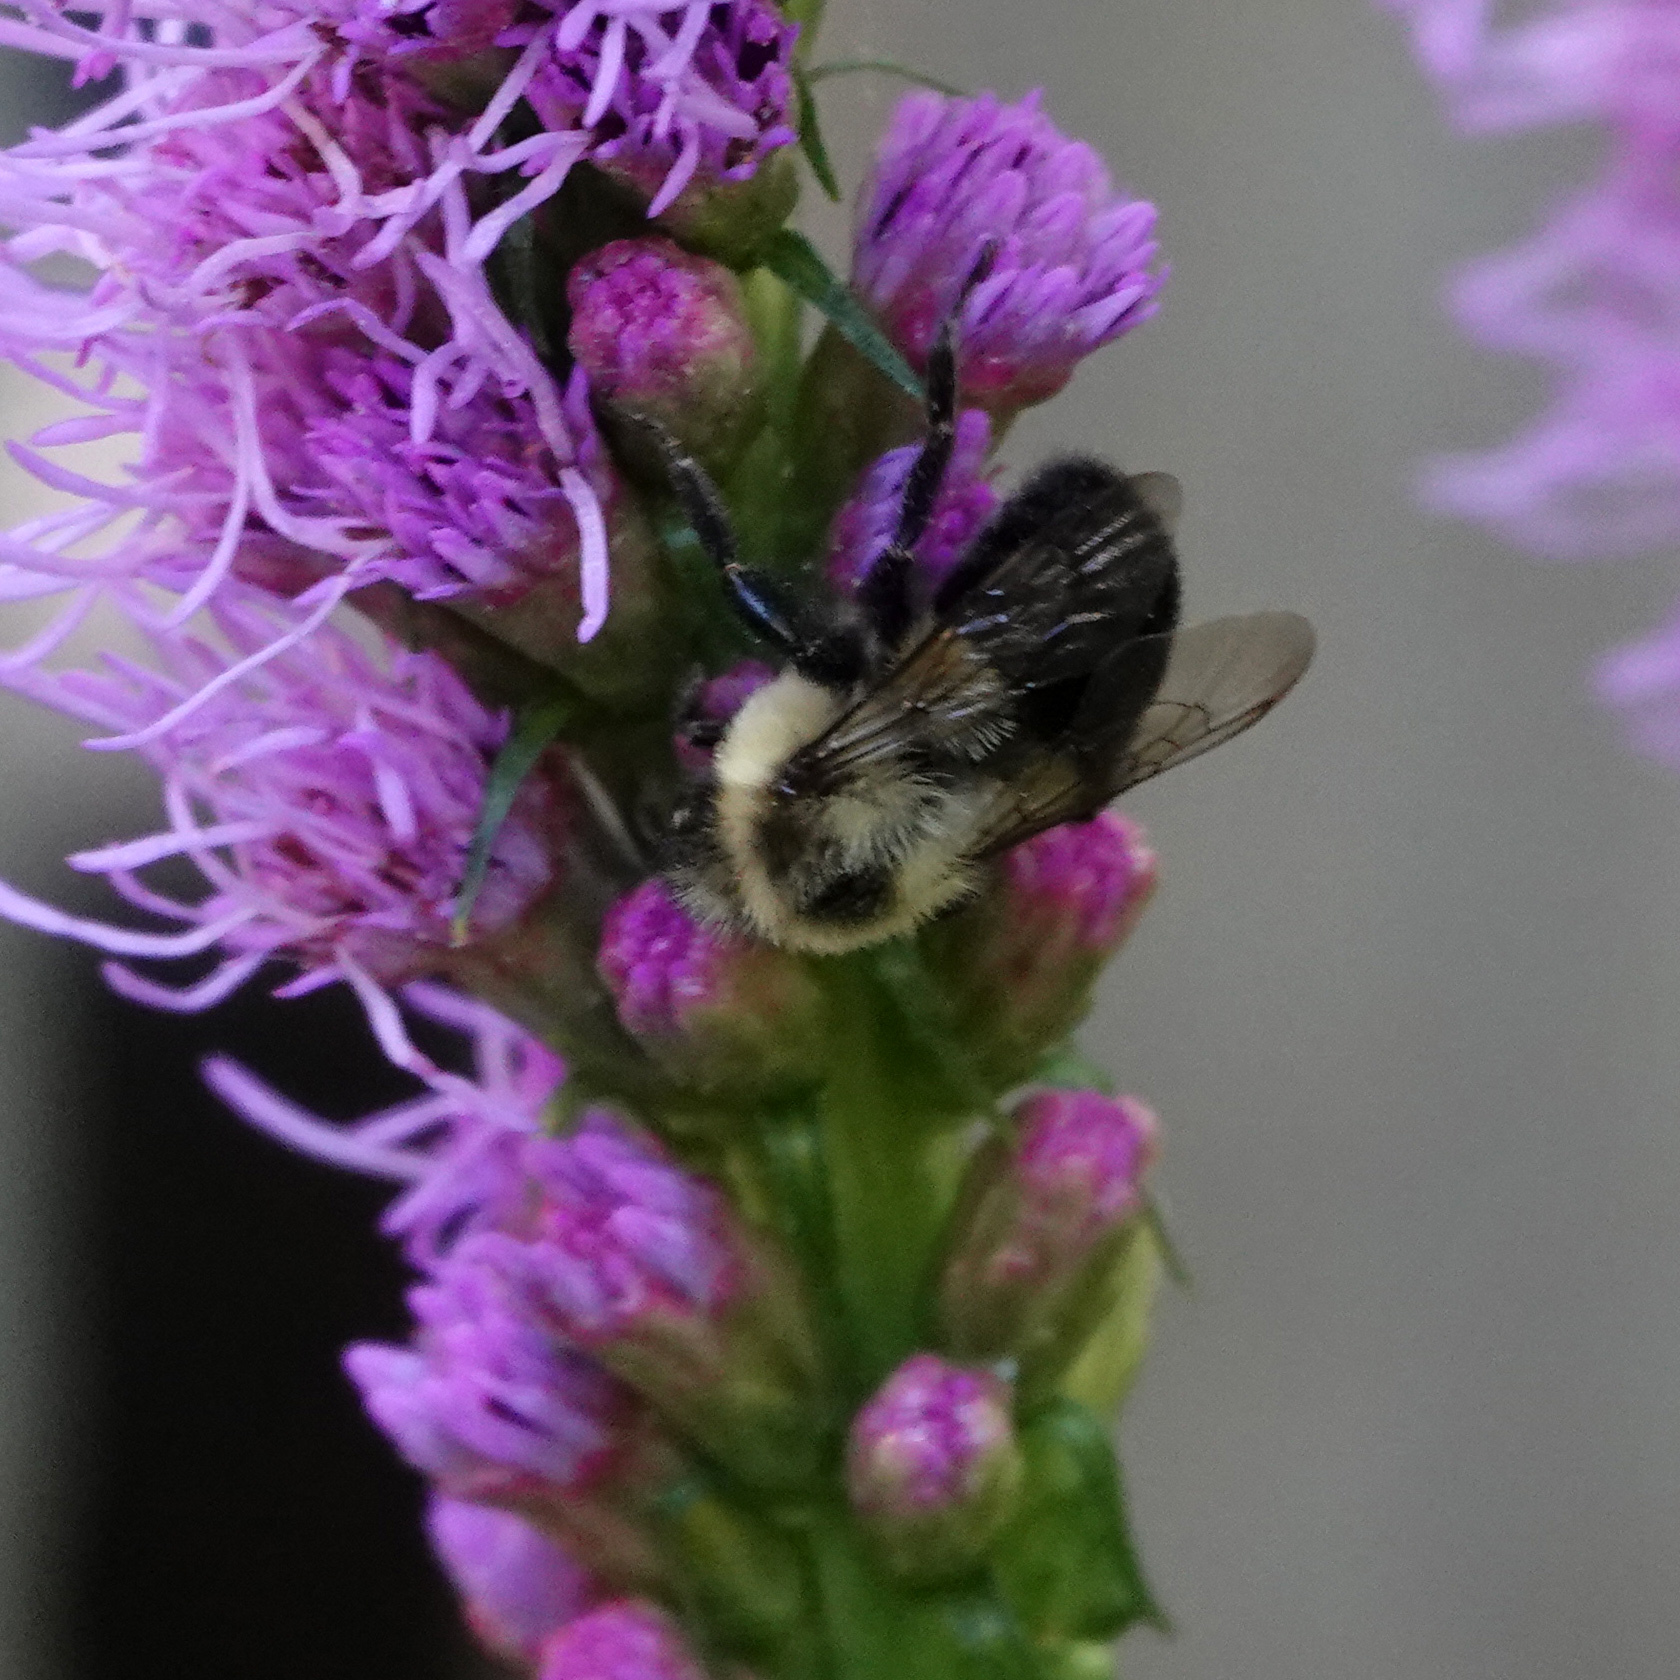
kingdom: Animalia
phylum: Arthropoda
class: Insecta
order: Hymenoptera
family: Apidae
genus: Bombus
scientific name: Bombus impatiens
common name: Common eastern bumble bee
